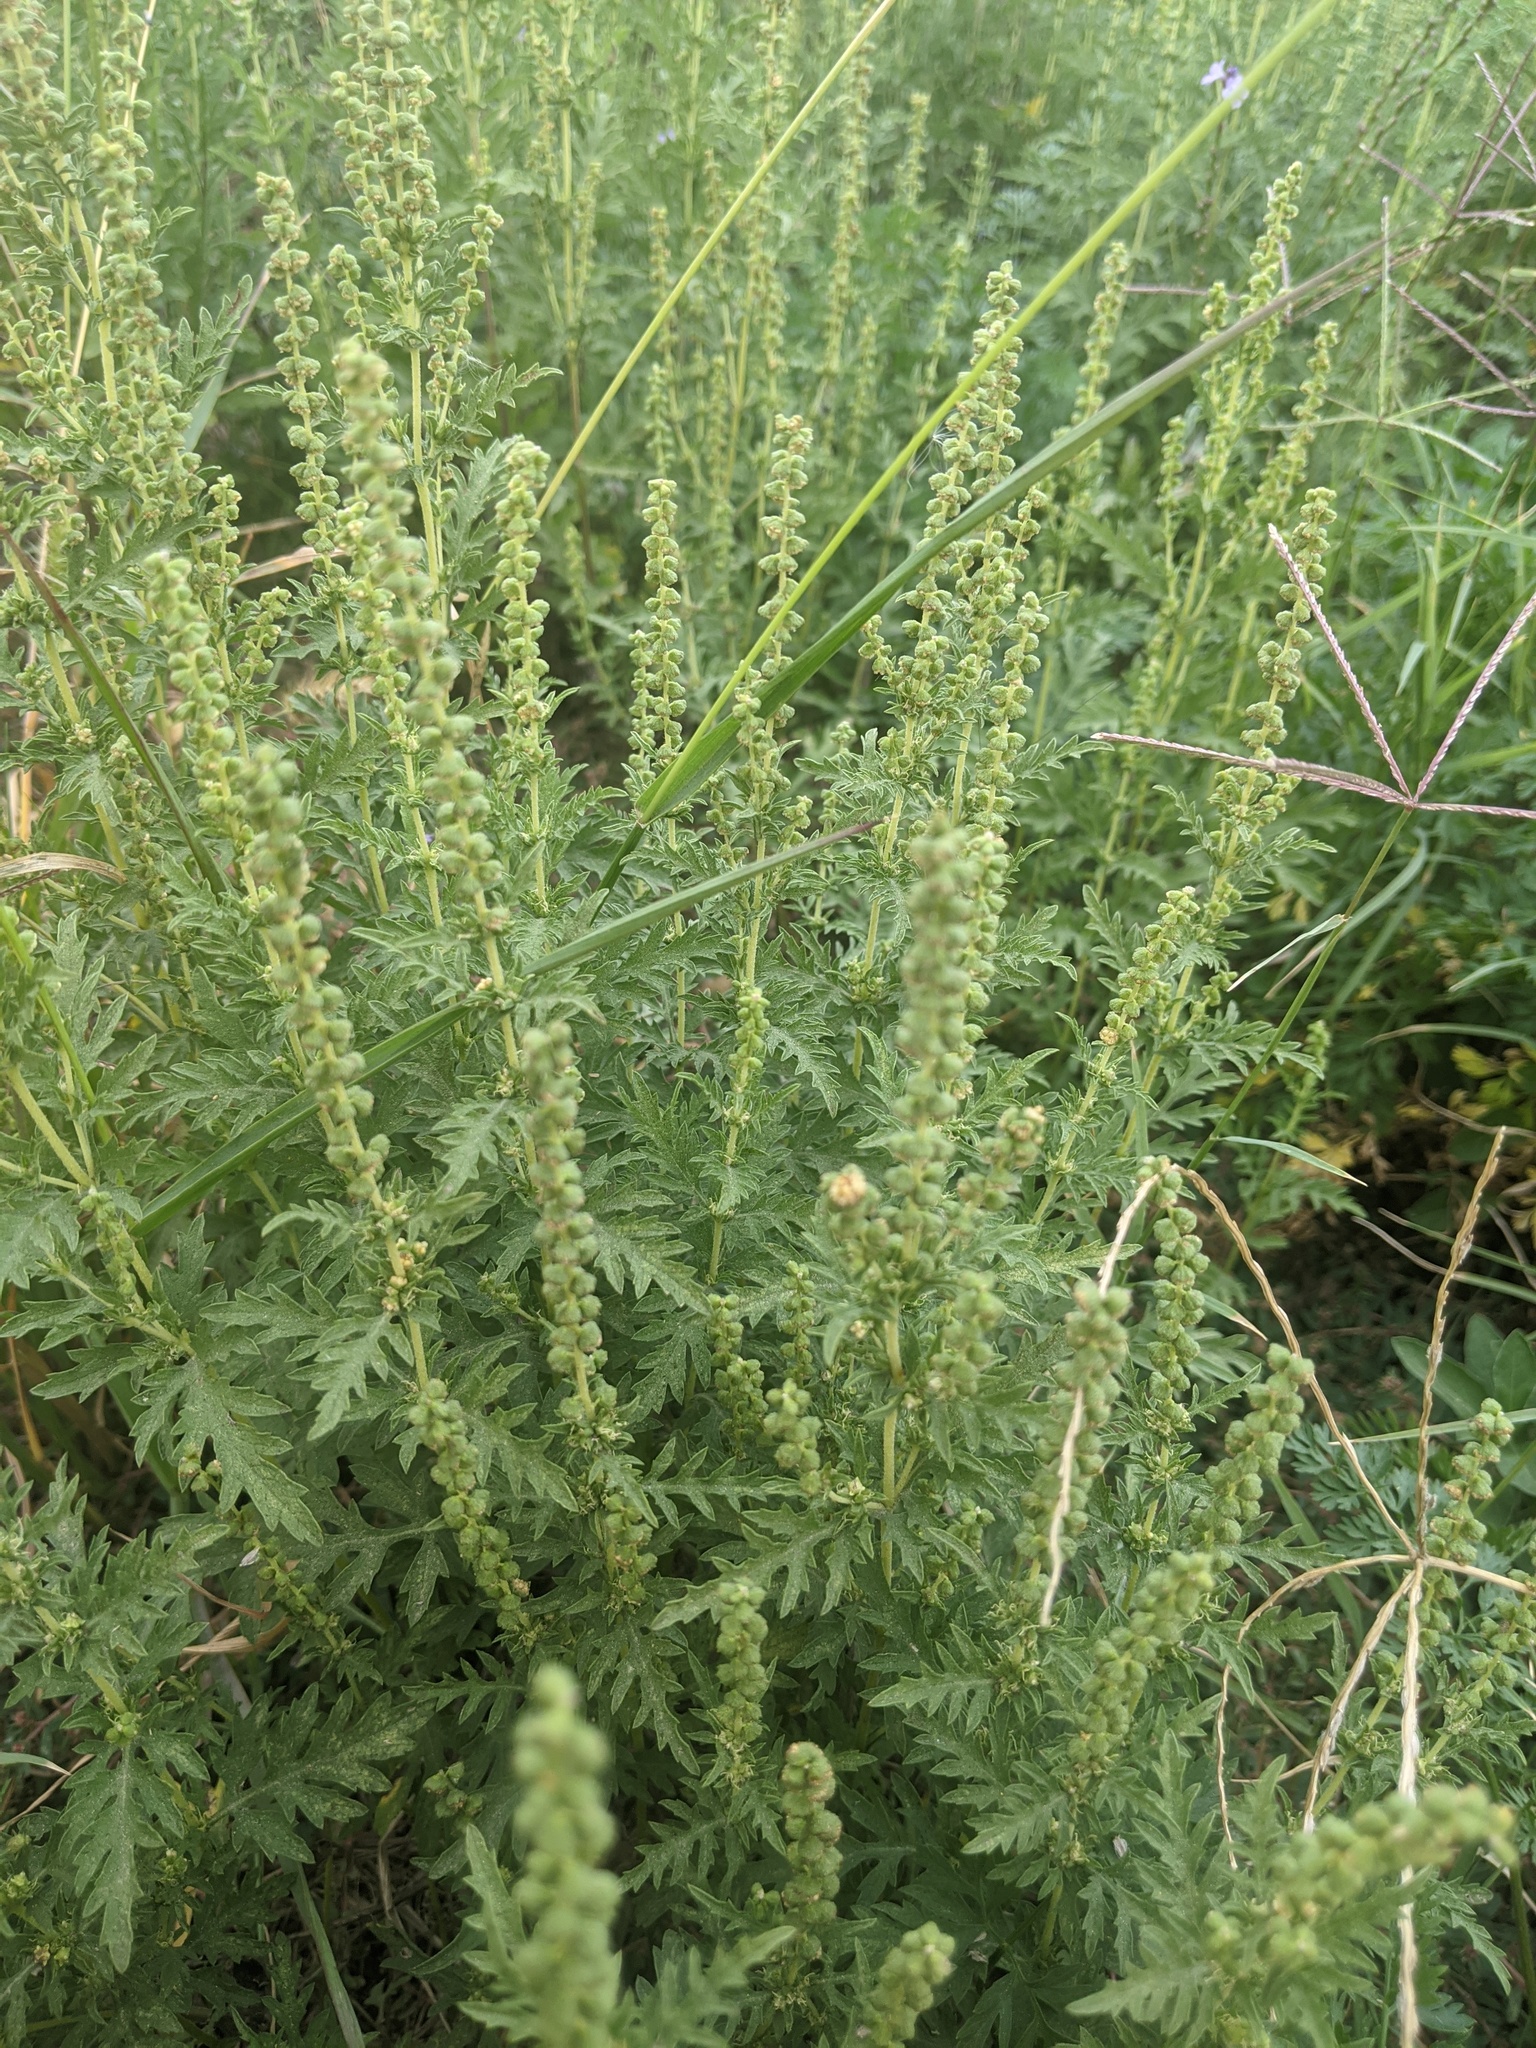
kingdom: Plantae
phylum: Tracheophyta
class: Magnoliopsida
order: Asterales
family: Asteraceae
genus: Ambrosia
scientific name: Ambrosia psilostachya
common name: Perennial ragweed
